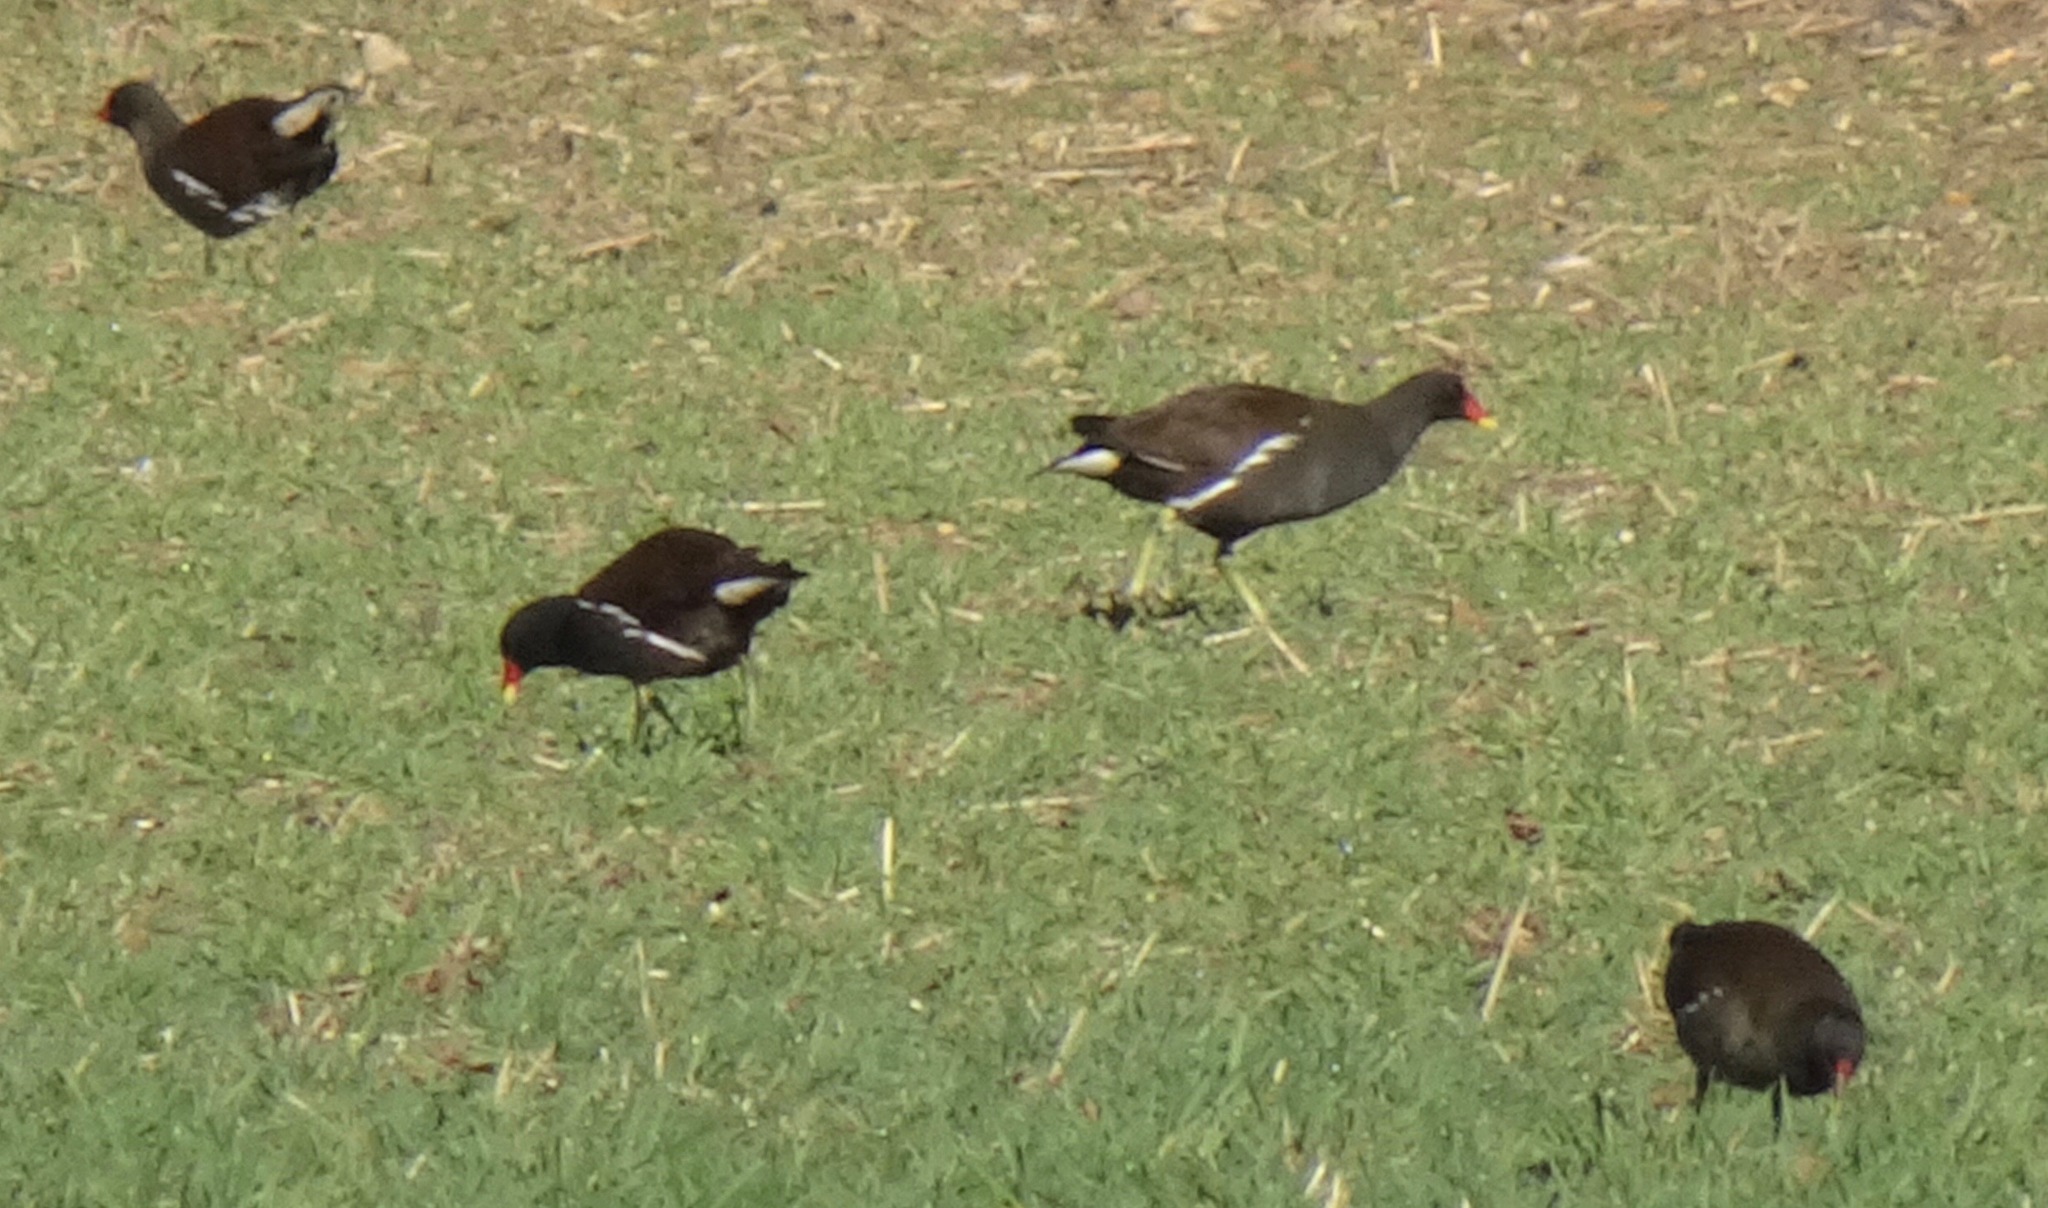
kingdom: Animalia
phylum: Chordata
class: Aves
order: Gruiformes
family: Rallidae
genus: Gallinula
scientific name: Gallinula chloropus
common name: Common moorhen
